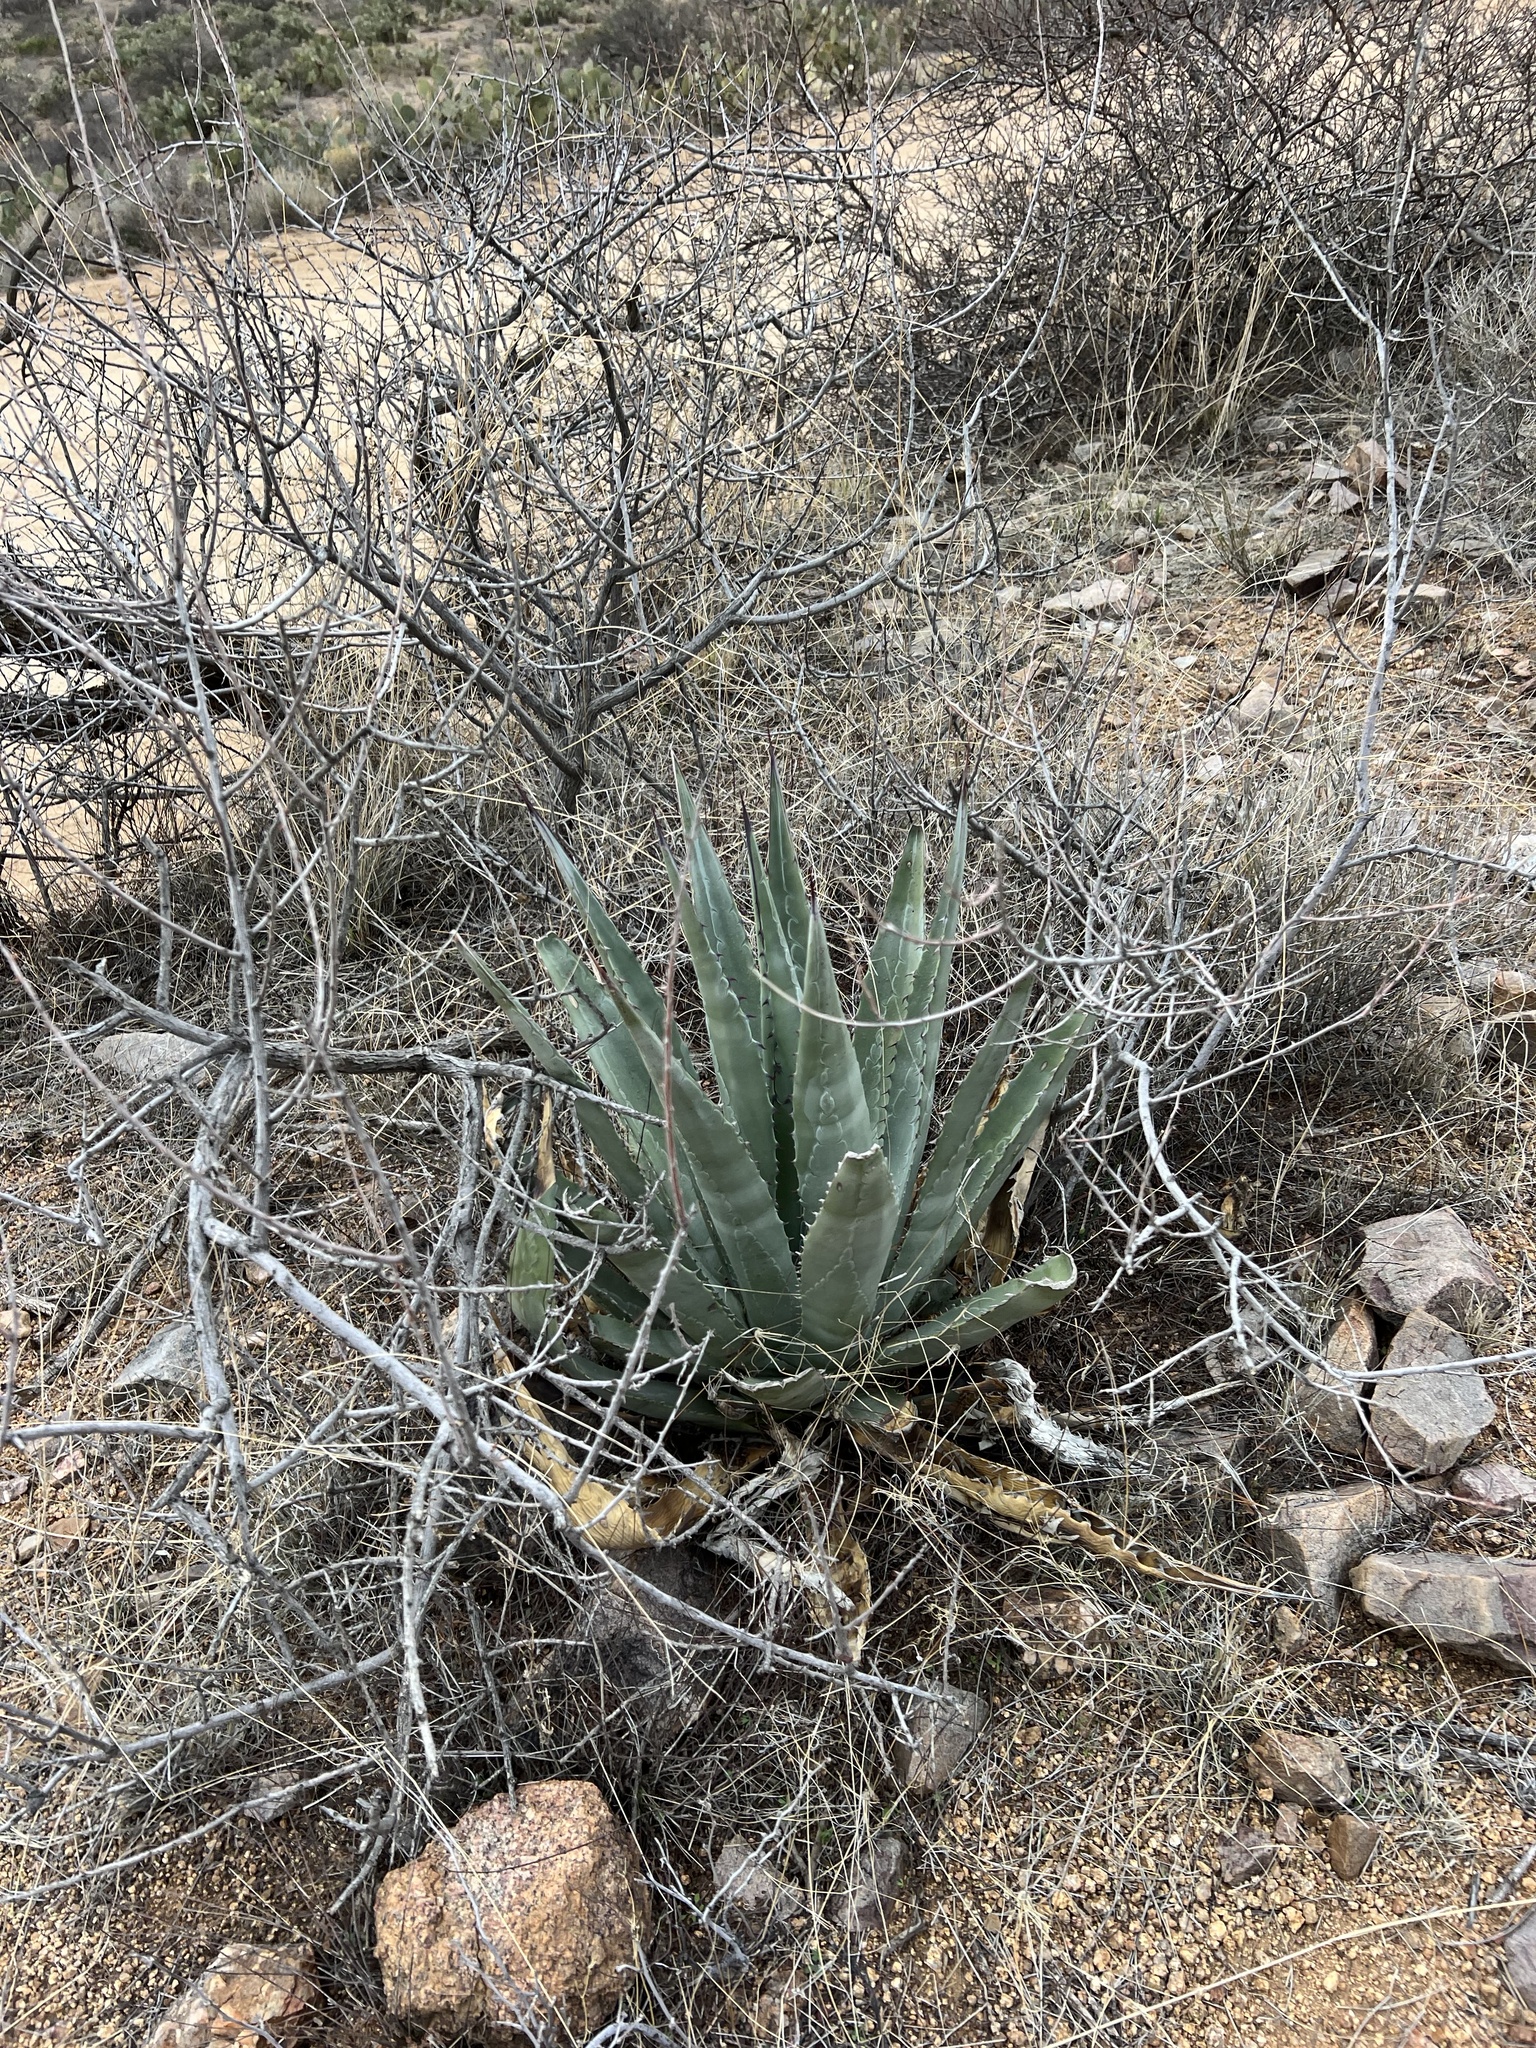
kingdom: Plantae
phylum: Tracheophyta
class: Liliopsida
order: Asparagales
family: Asparagaceae
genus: Agave
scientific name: Agave palmeri
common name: Palmer agave
